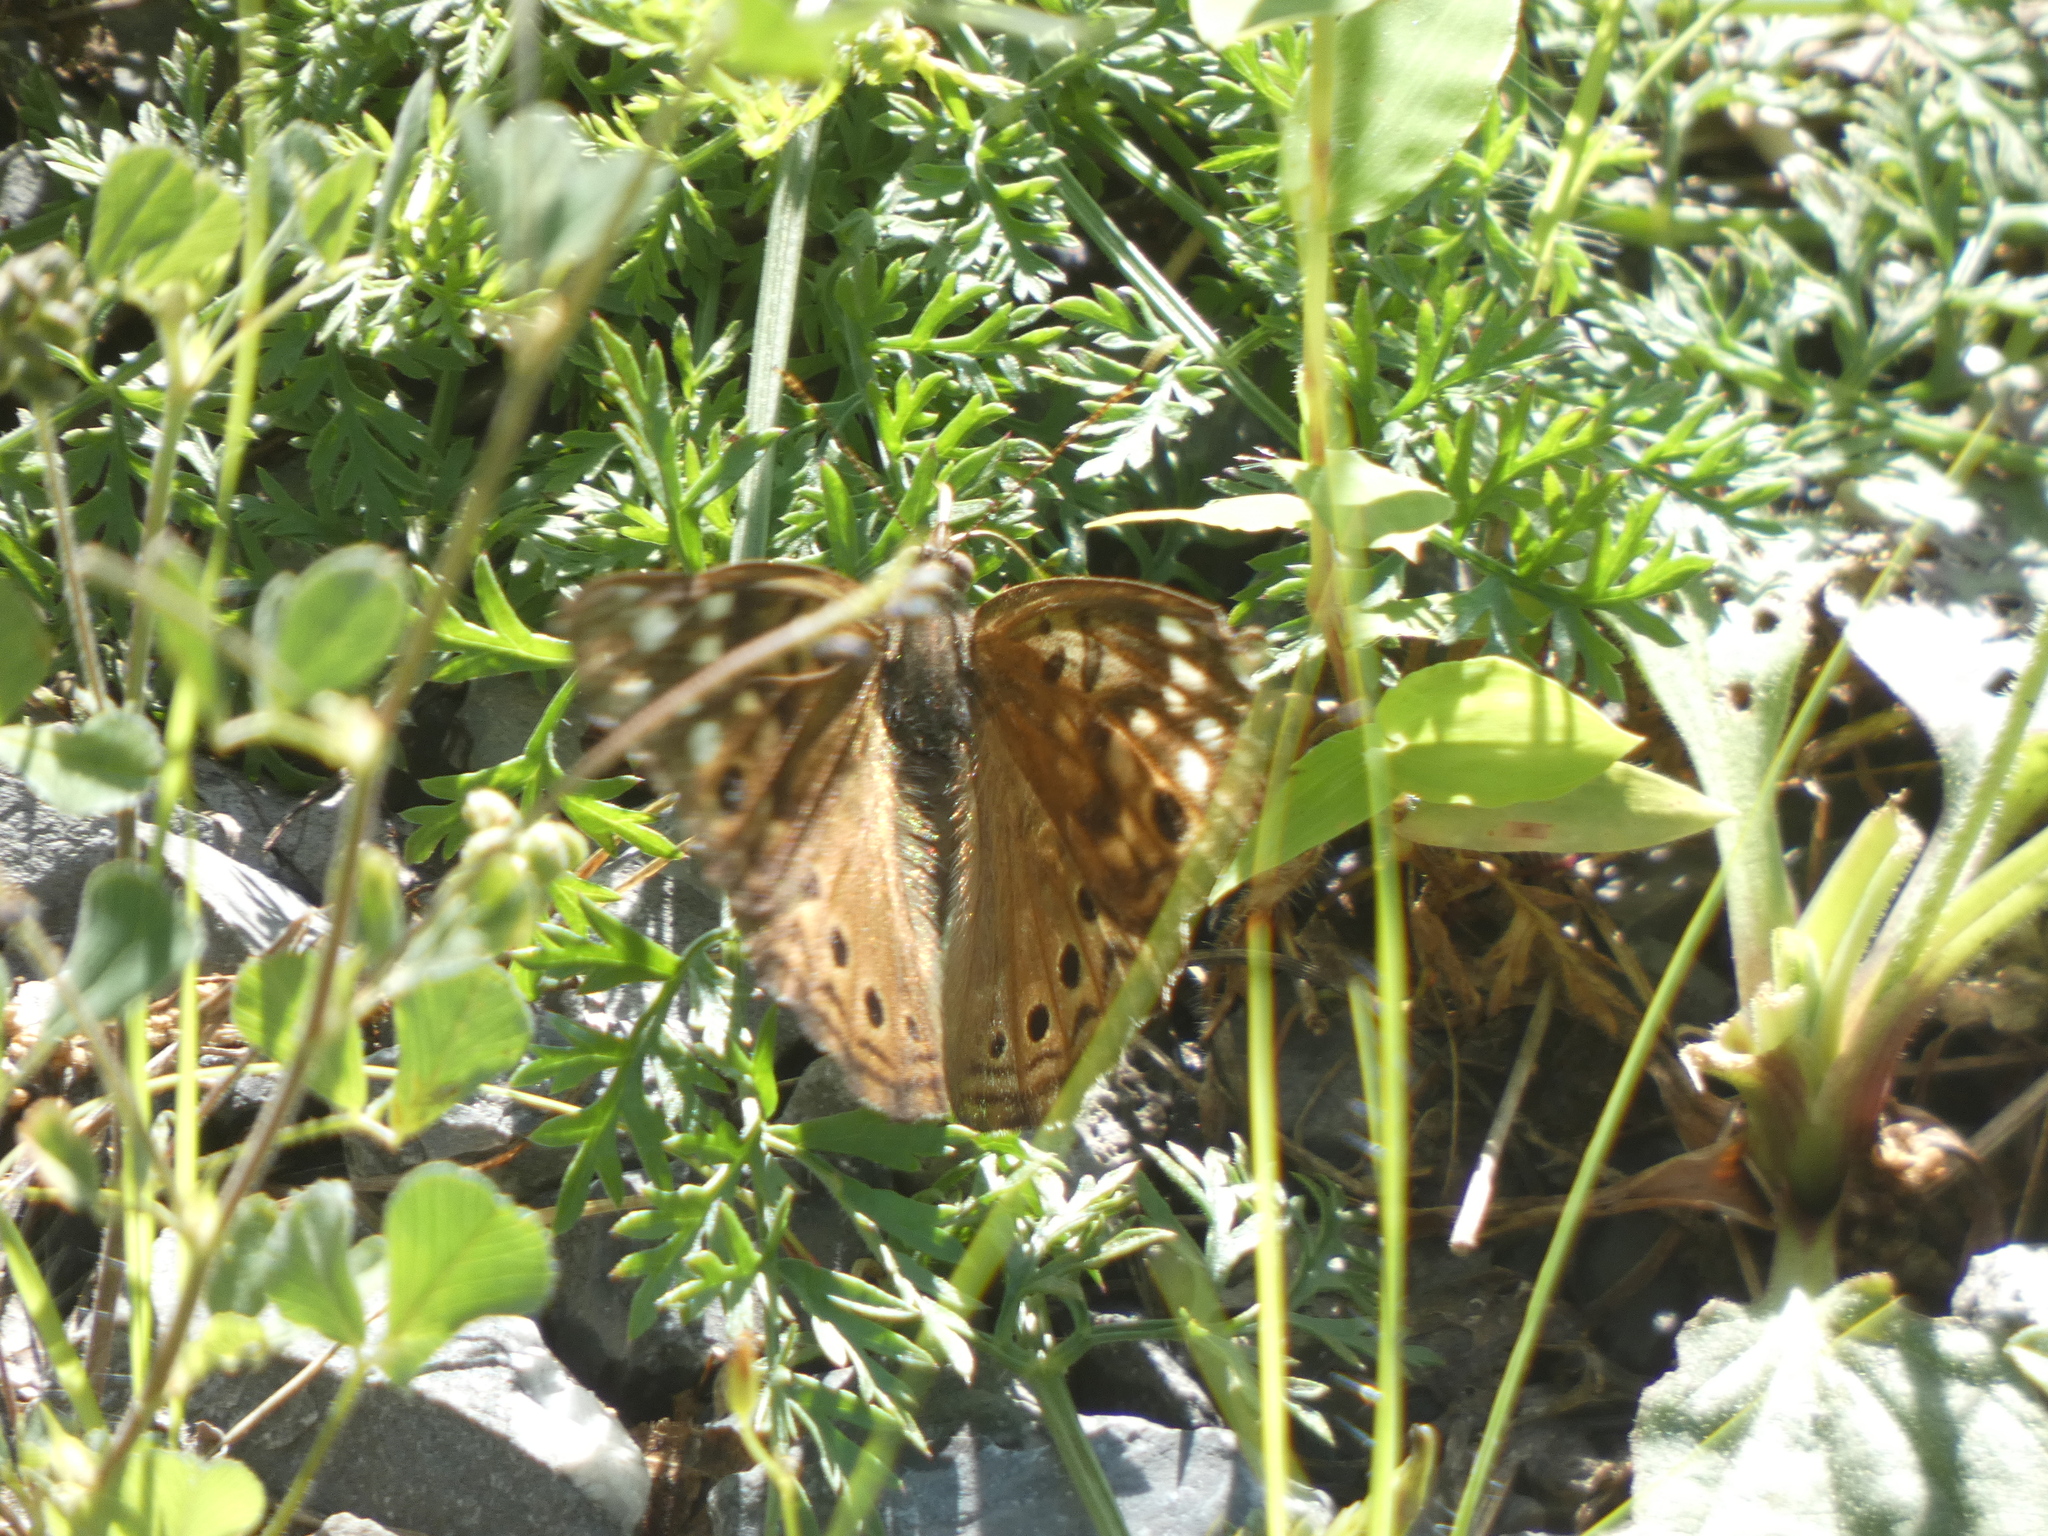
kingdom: Animalia
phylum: Arthropoda
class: Insecta
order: Lepidoptera
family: Nymphalidae
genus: Asterocampa
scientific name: Asterocampa celtis
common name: Hackberry emperor
